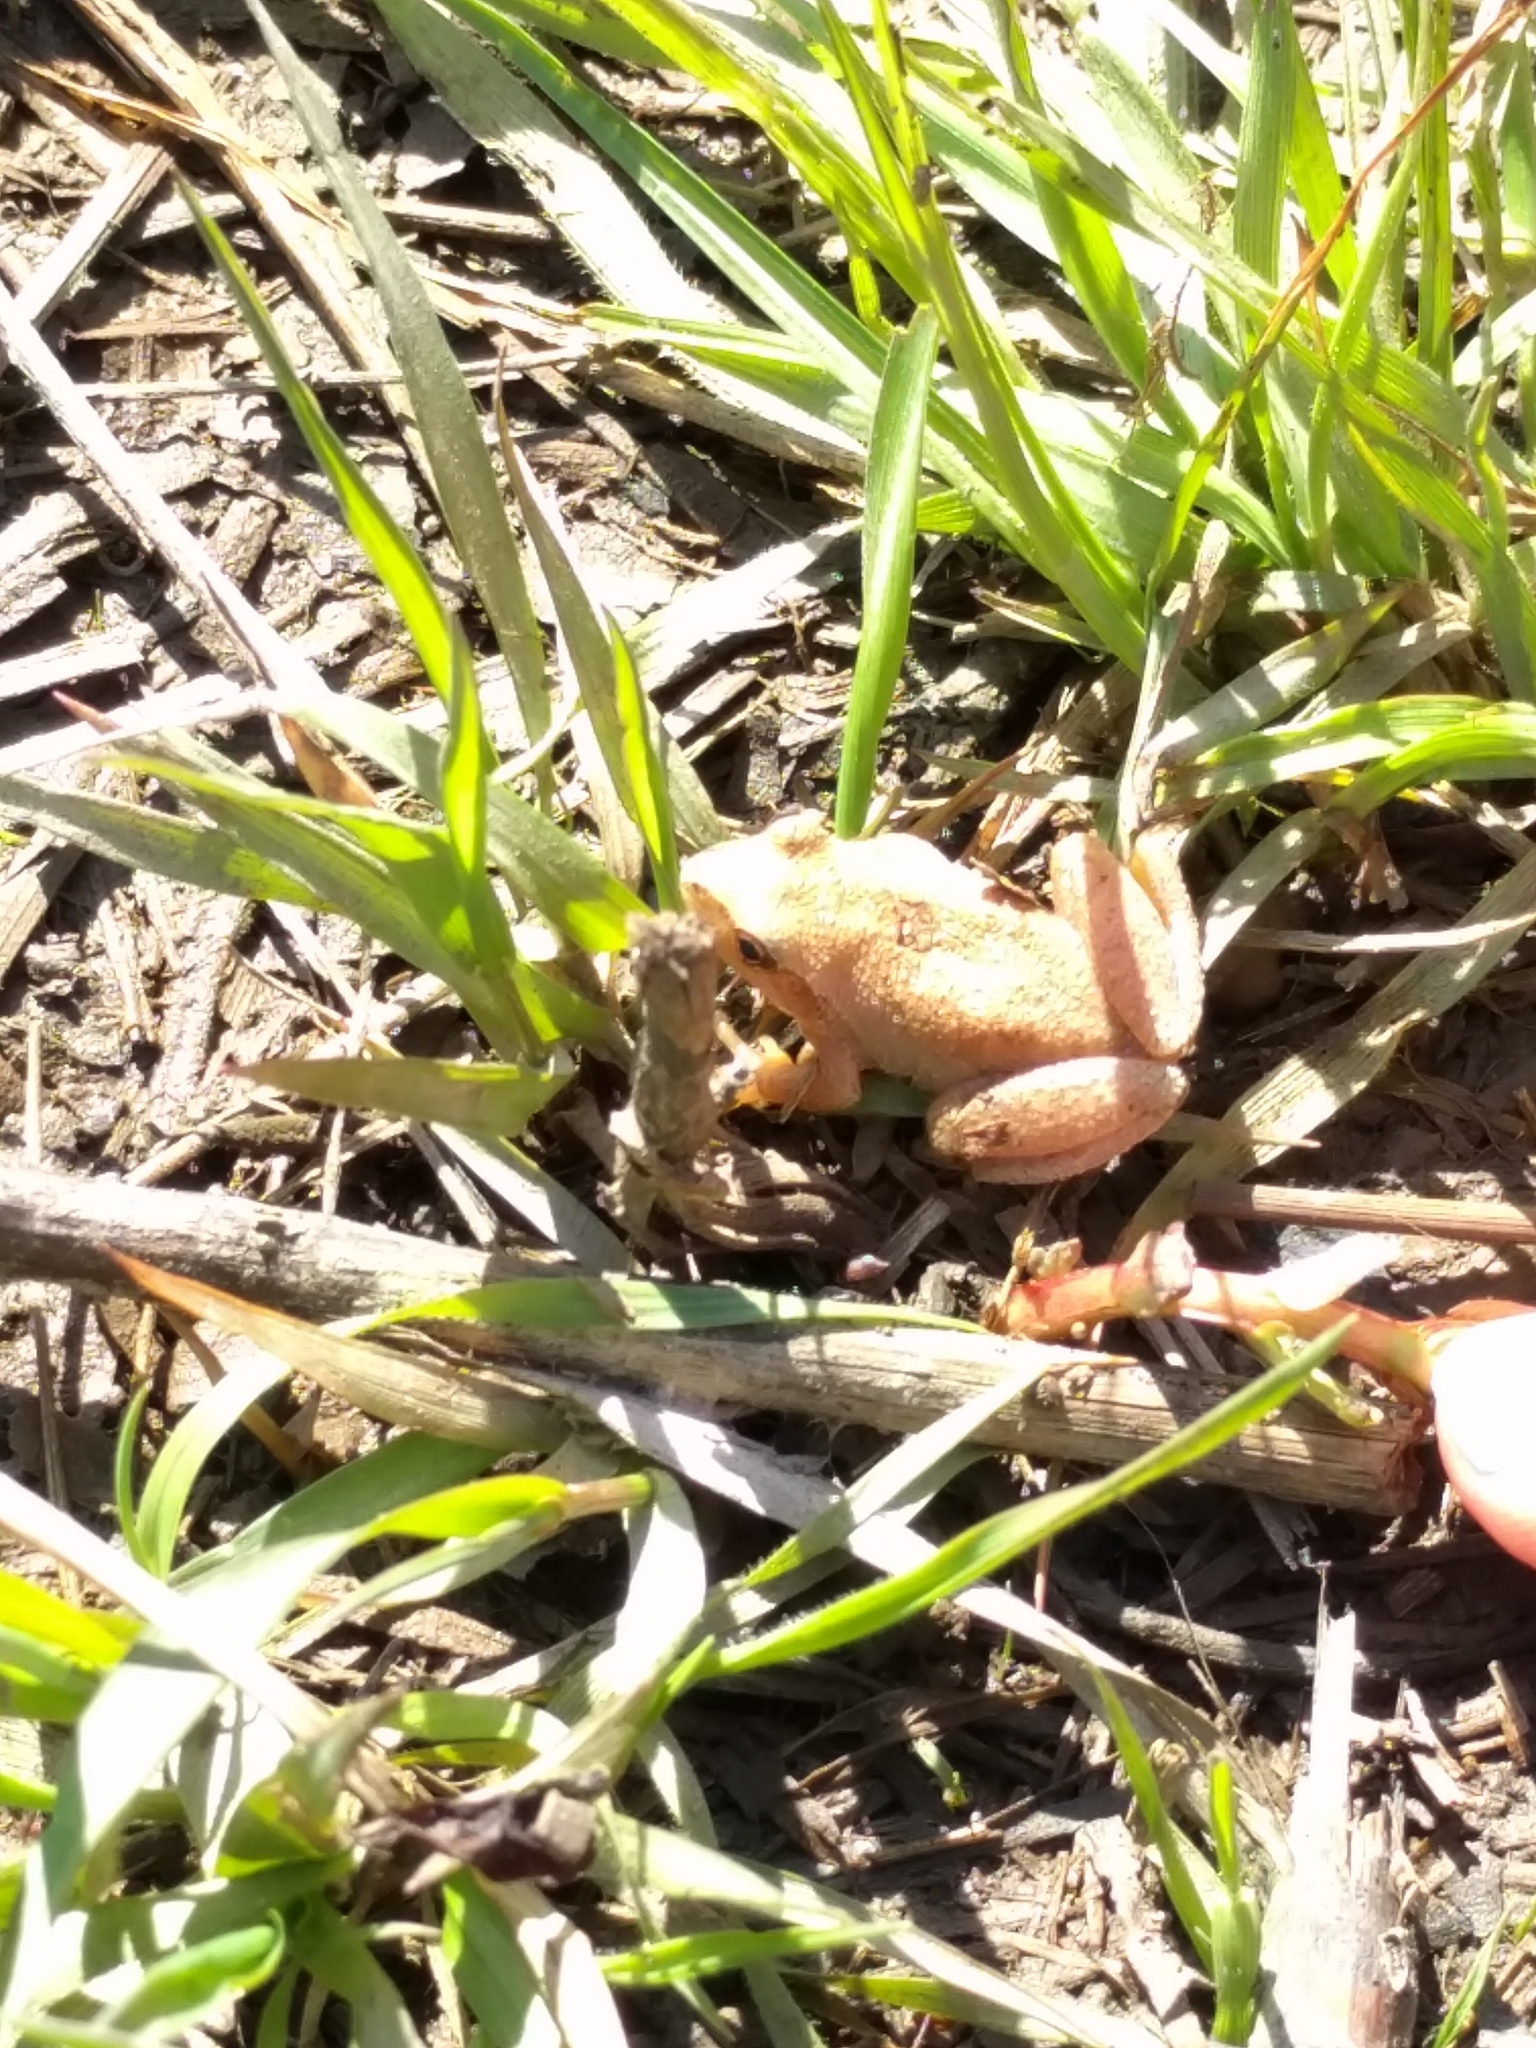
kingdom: Animalia
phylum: Chordata
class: Amphibia
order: Anura
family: Hylidae
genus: Pseudacris
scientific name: Pseudacris crucifer
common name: Spring peeper
